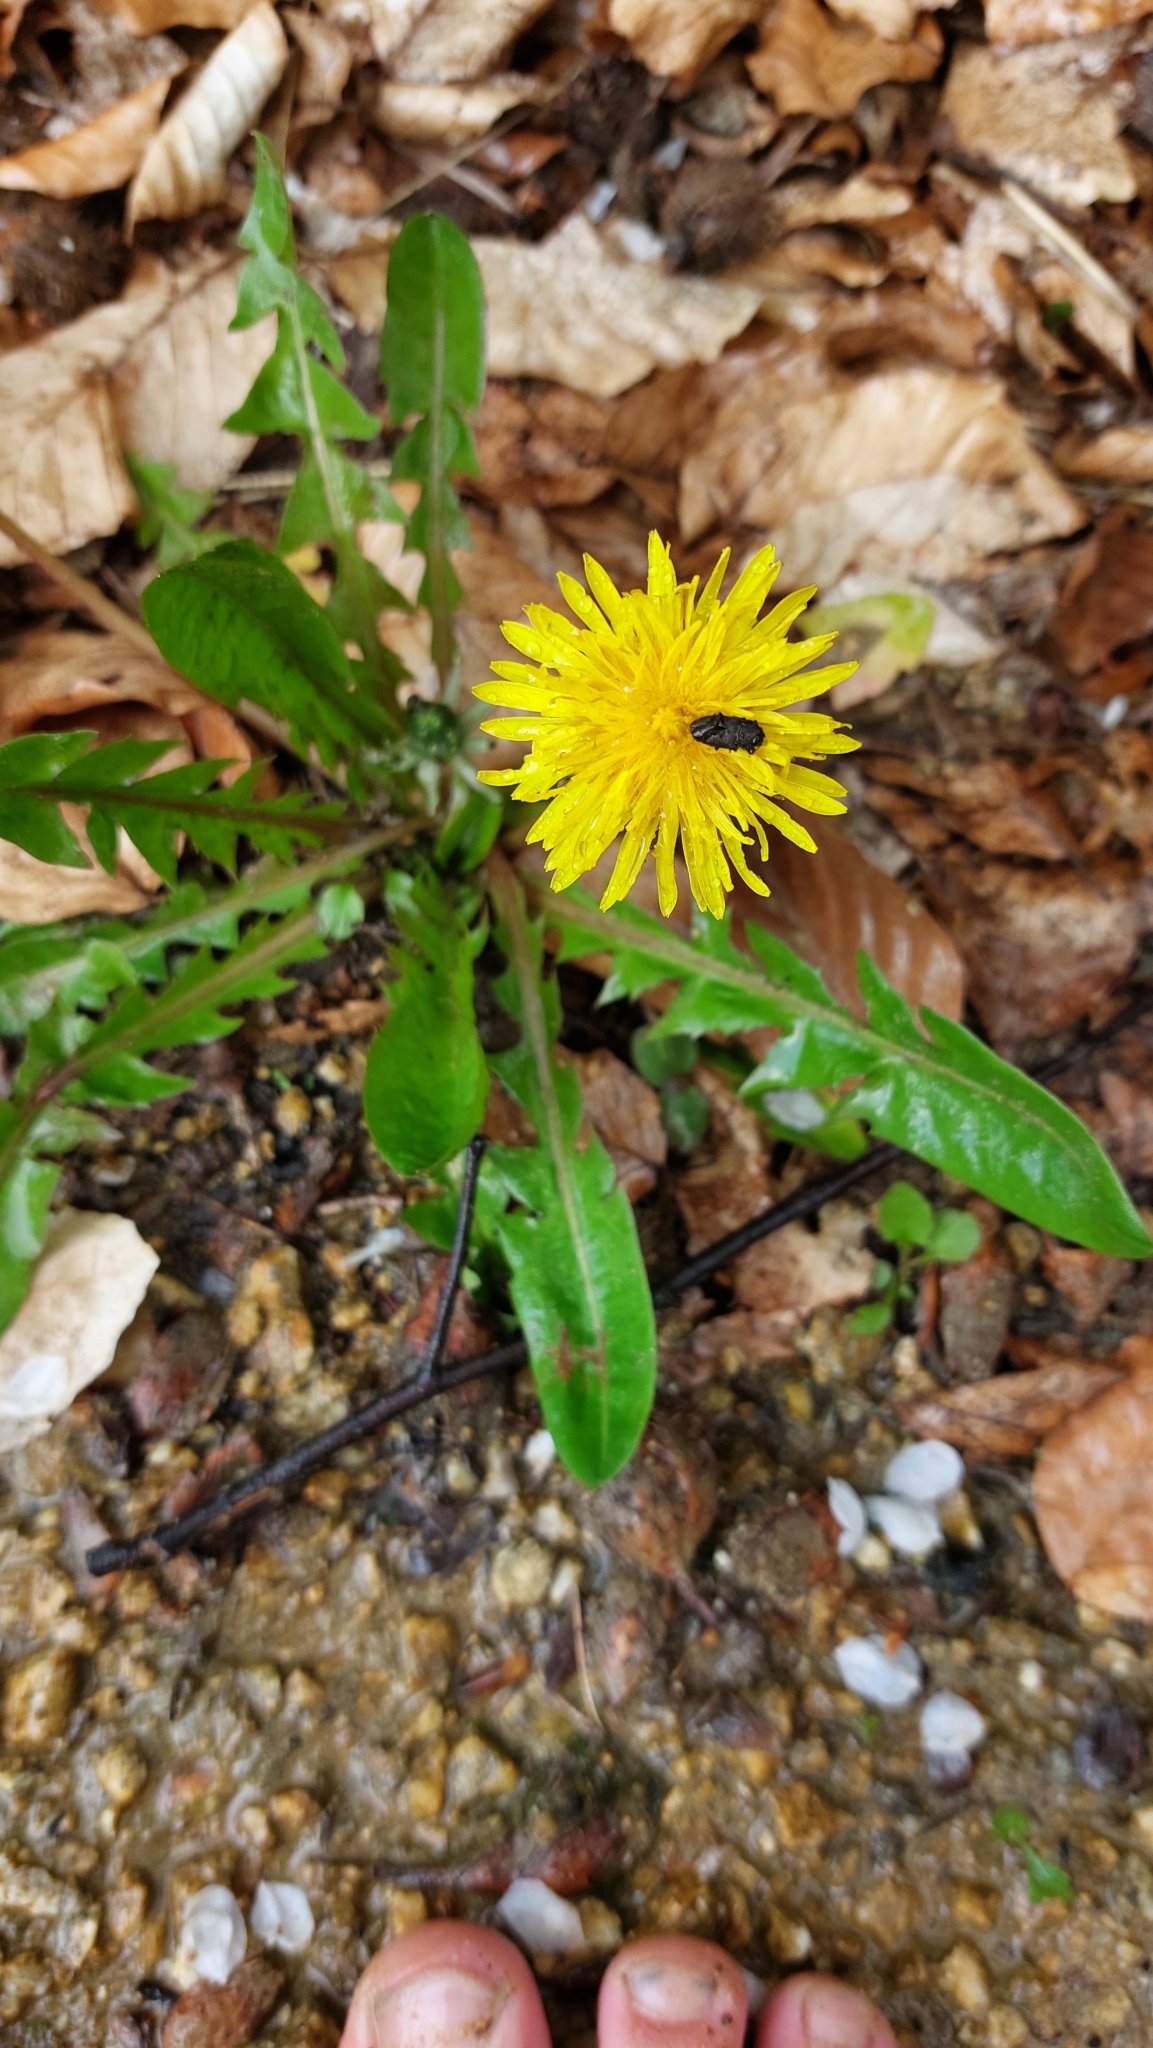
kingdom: Plantae
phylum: Tracheophyta
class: Magnoliopsida
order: Asterales
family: Asteraceae
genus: Taraxacum
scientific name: Taraxacum
